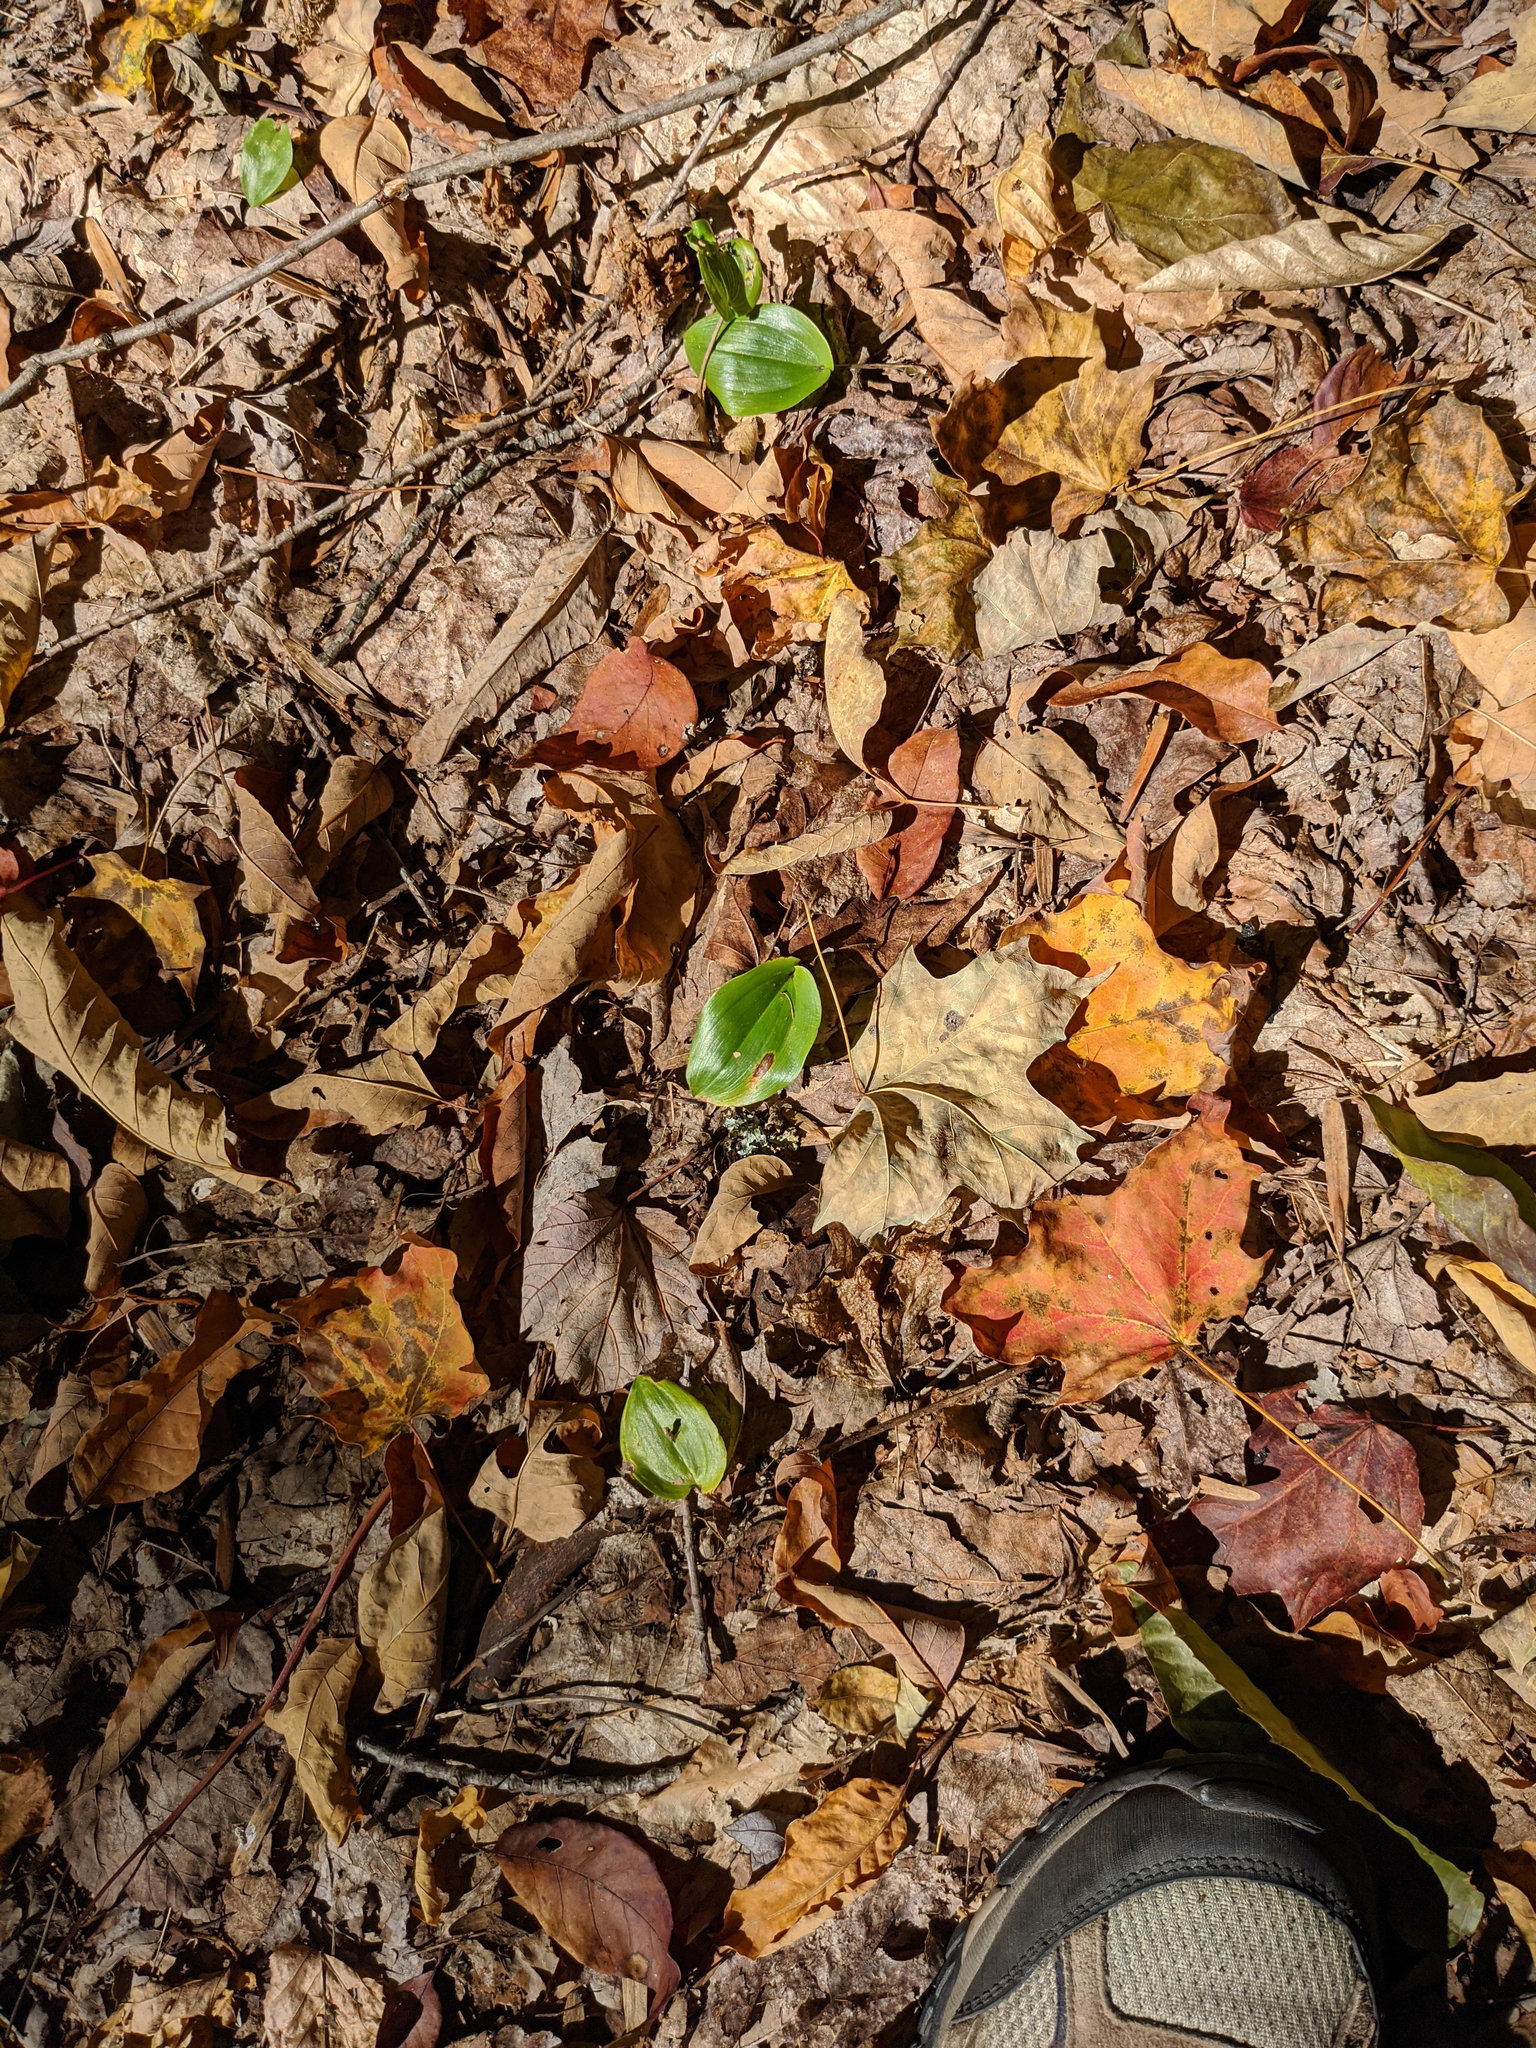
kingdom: Plantae
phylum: Tracheophyta
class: Liliopsida
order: Asparagales
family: Asparagaceae
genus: Maianthemum
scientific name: Maianthemum canadense
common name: False lily-of-the-valley
